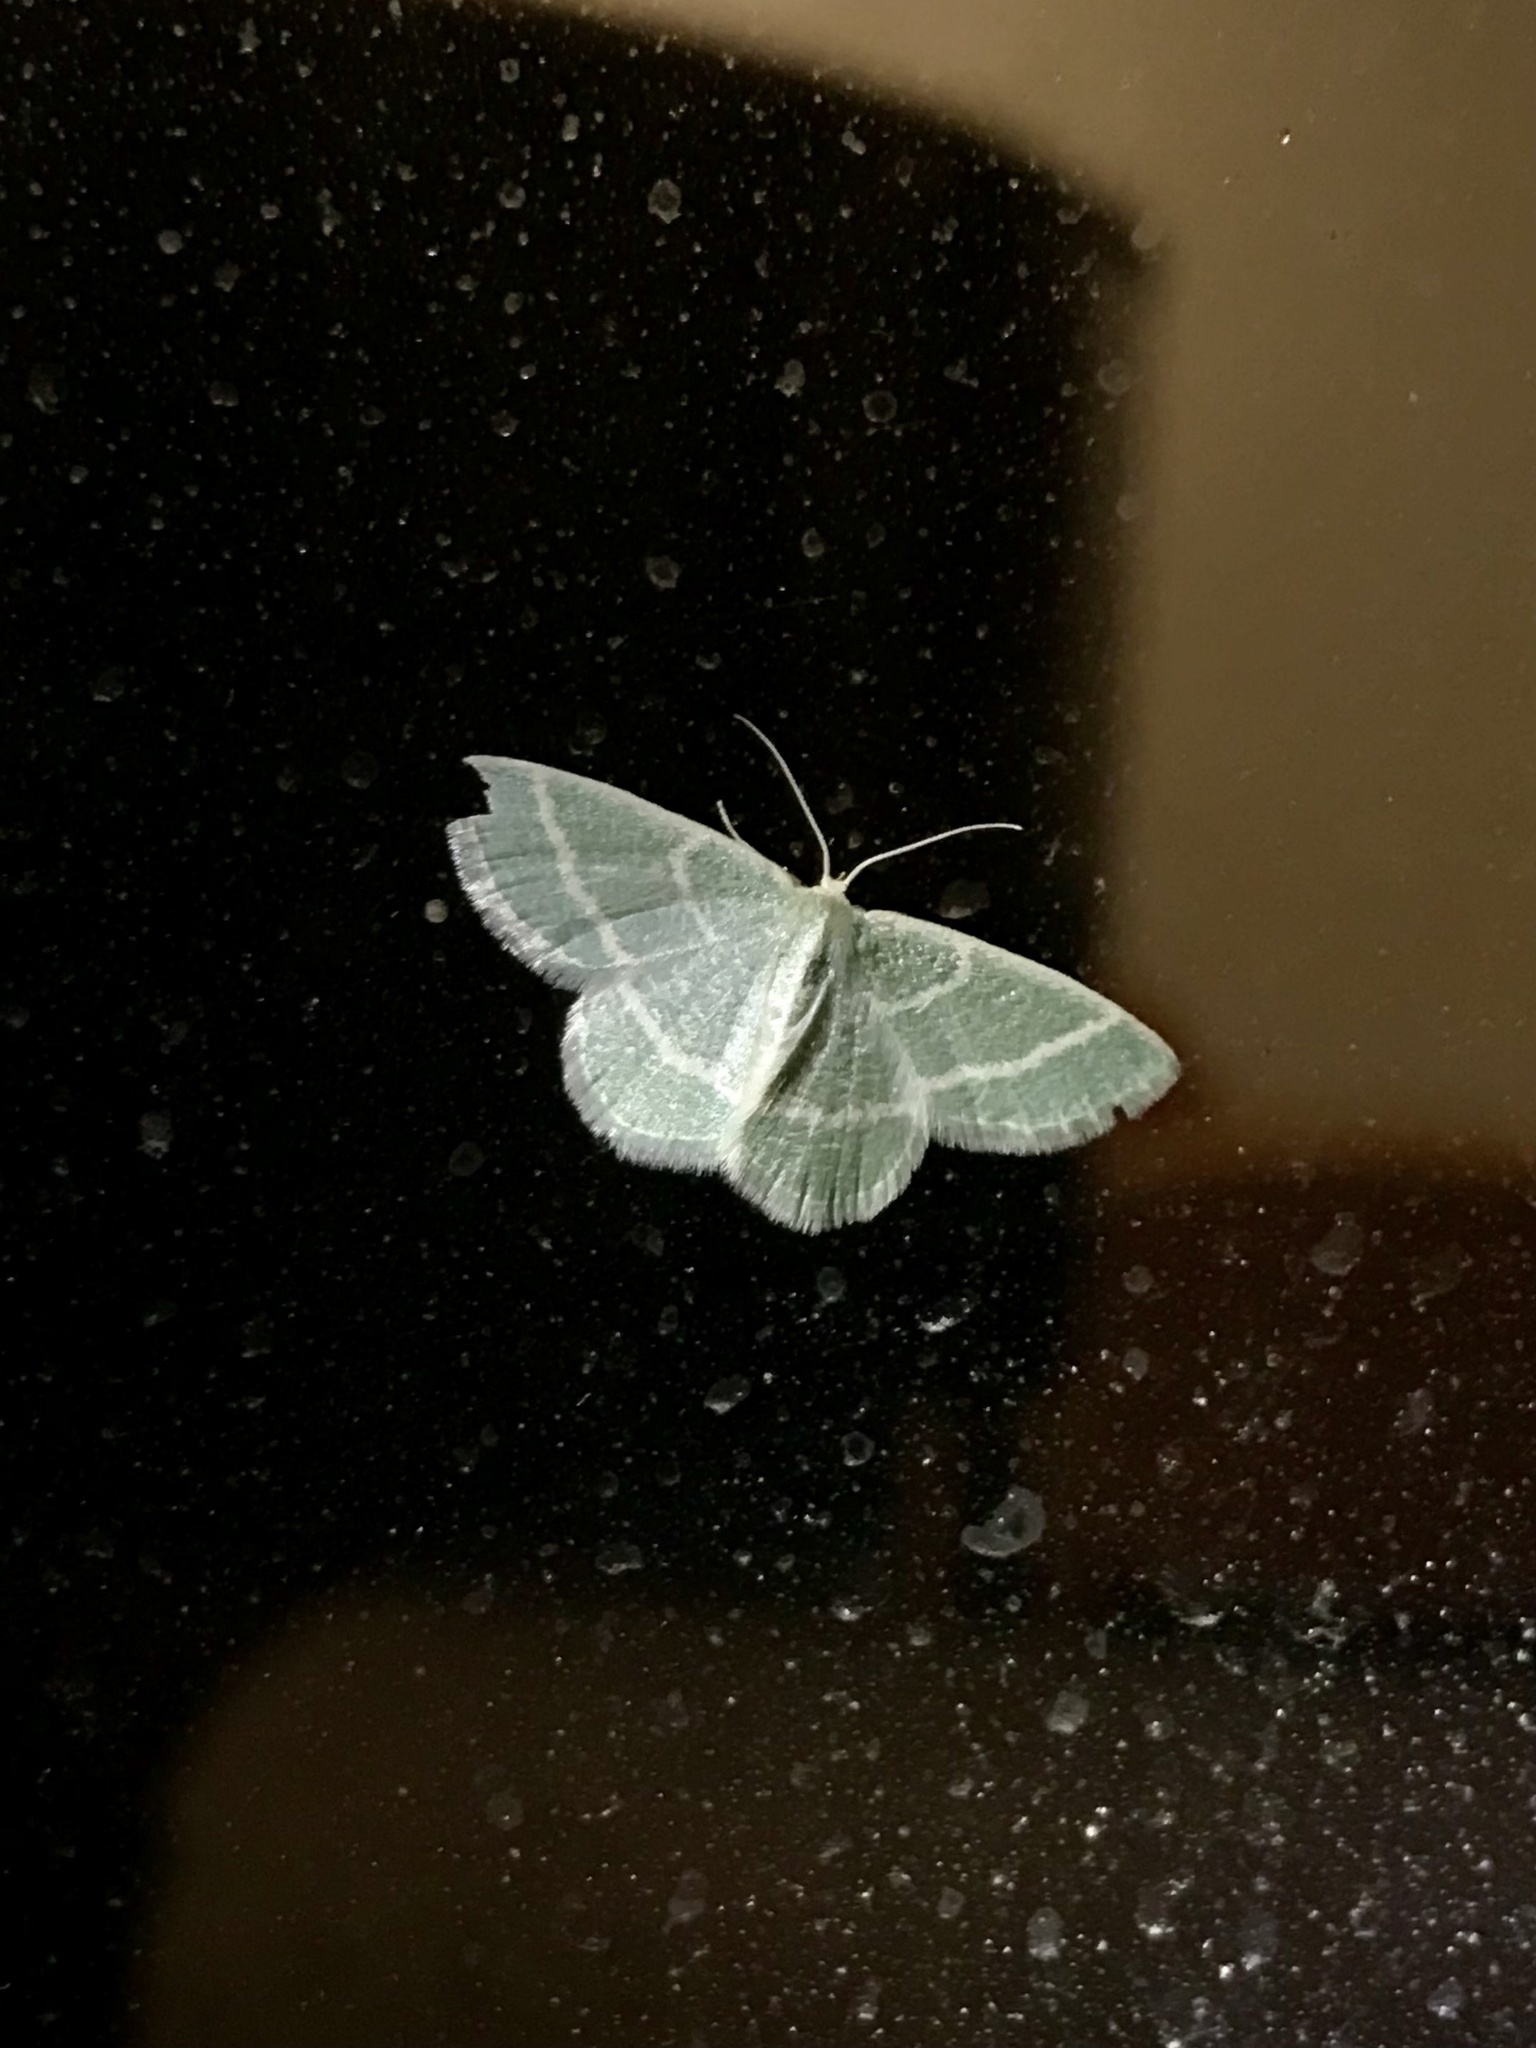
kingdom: Animalia
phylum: Arthropoda
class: Insecta
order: Lepidoptera
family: Geometridae
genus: Chlorochlamys
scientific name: Chlorochlamys chloroleucaria
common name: Blackberry looper
